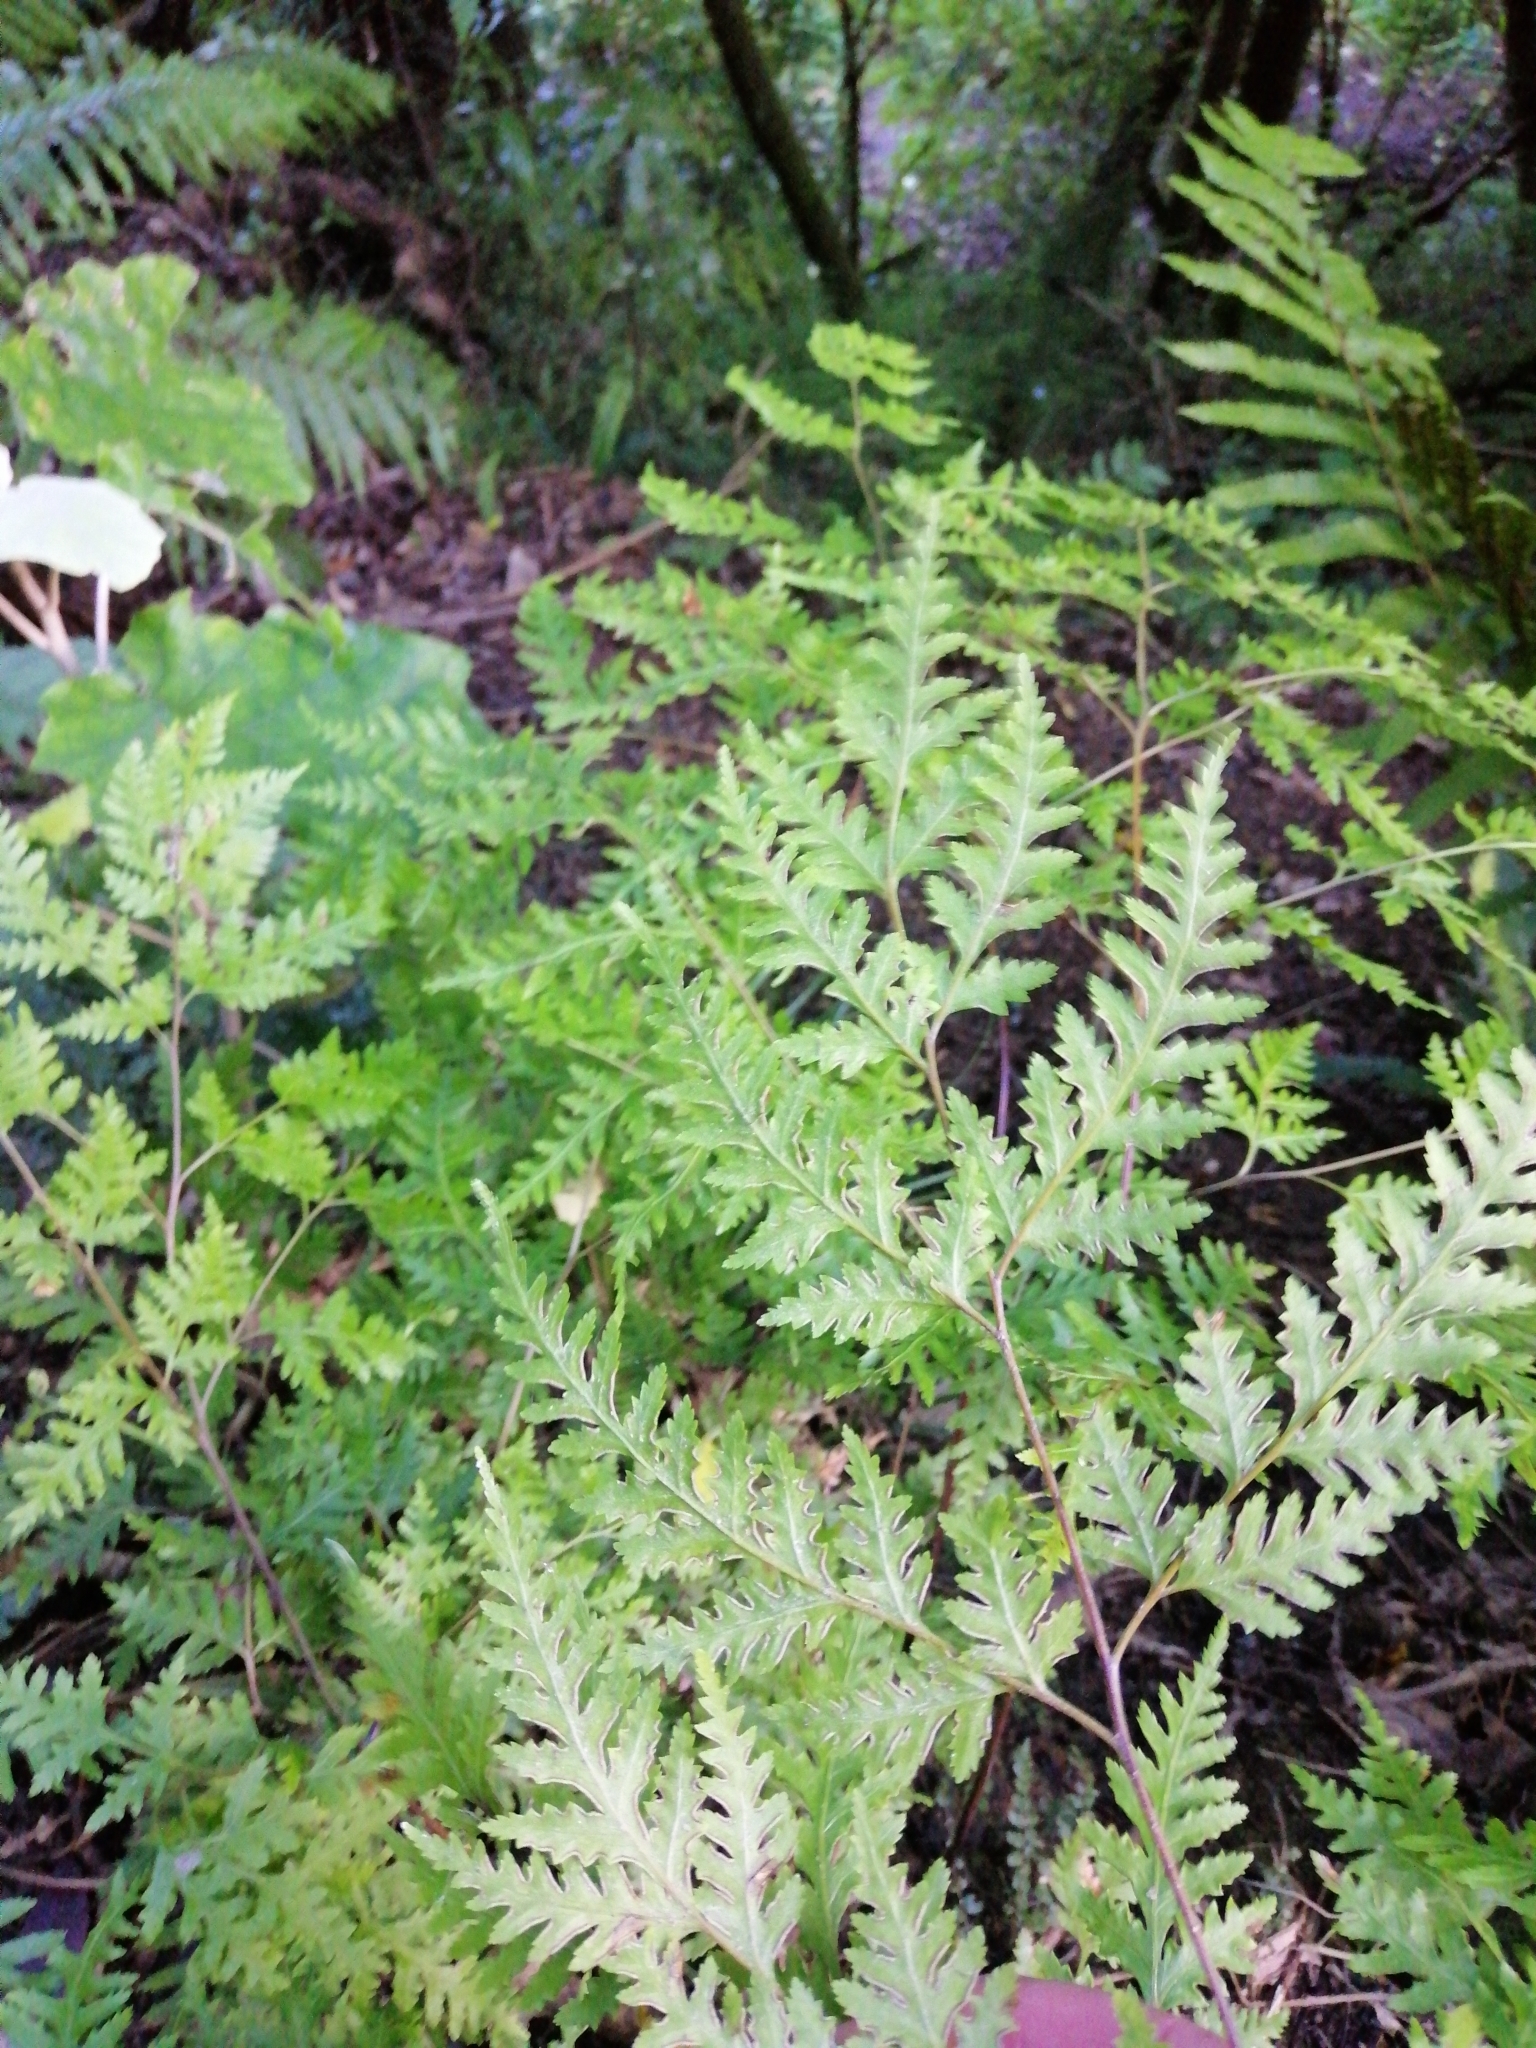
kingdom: Plantae
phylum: Tracheophyta
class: Polypodiopsida
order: Polypodiales
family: Pteridaceae
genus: Pteris
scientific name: Pteris macilenta
